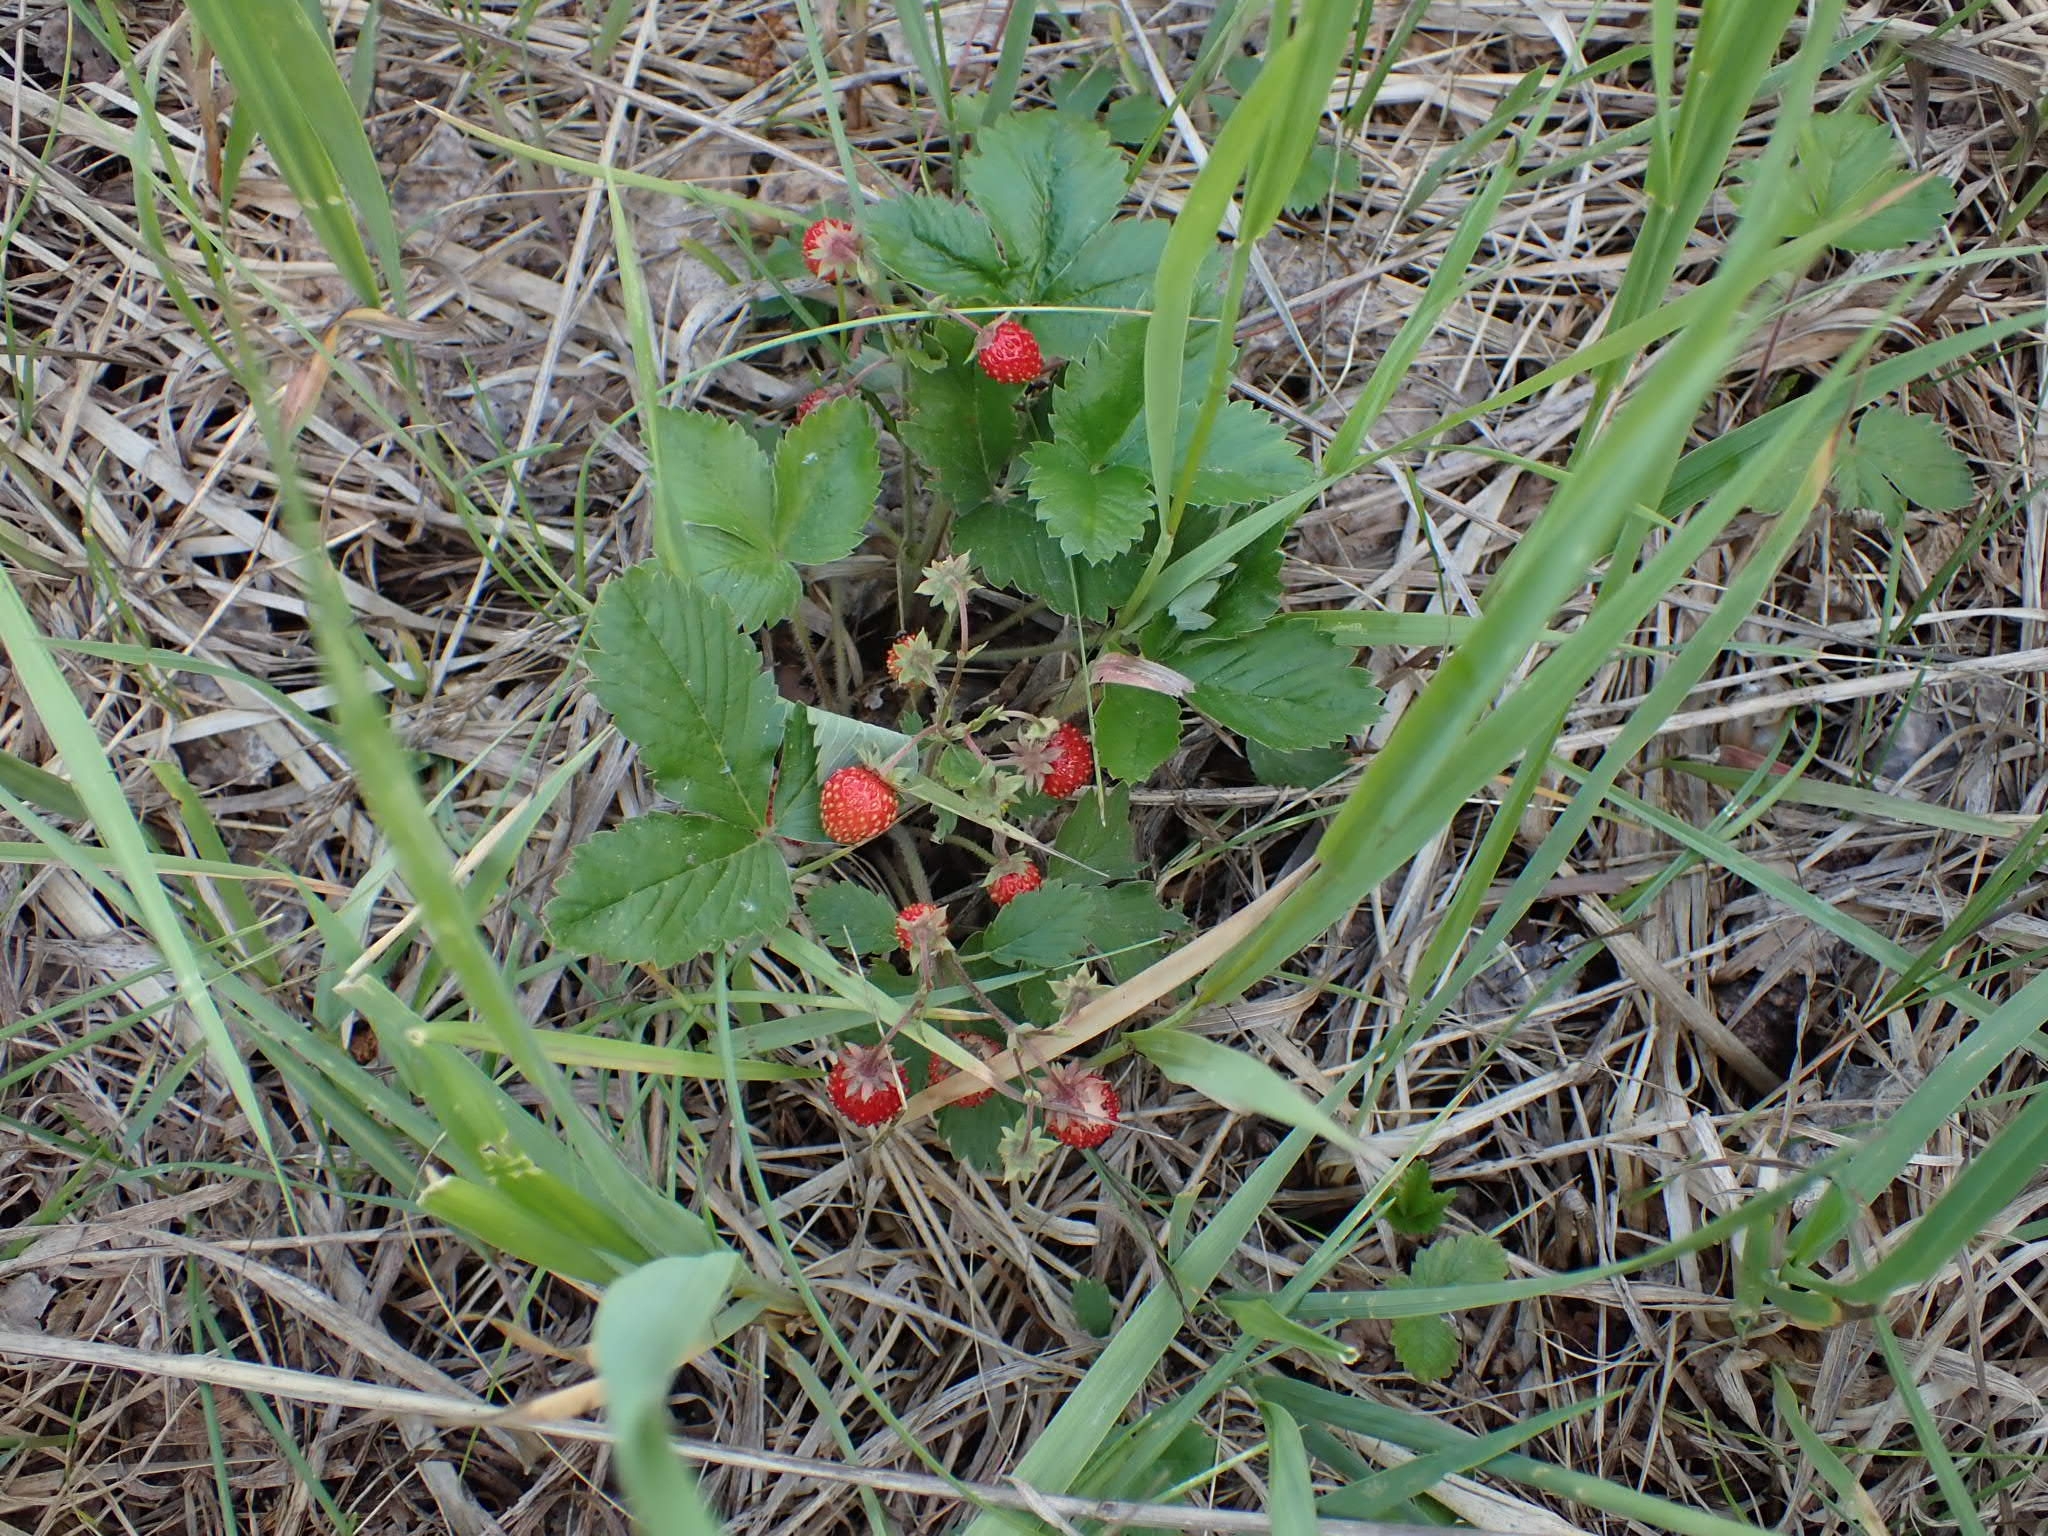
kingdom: Plantae
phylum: Tracheophyta
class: Magnoliopsida
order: Rosales
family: Rosaceae
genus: Fragaria
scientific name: Fragaria vesca
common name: Wild strawberry
